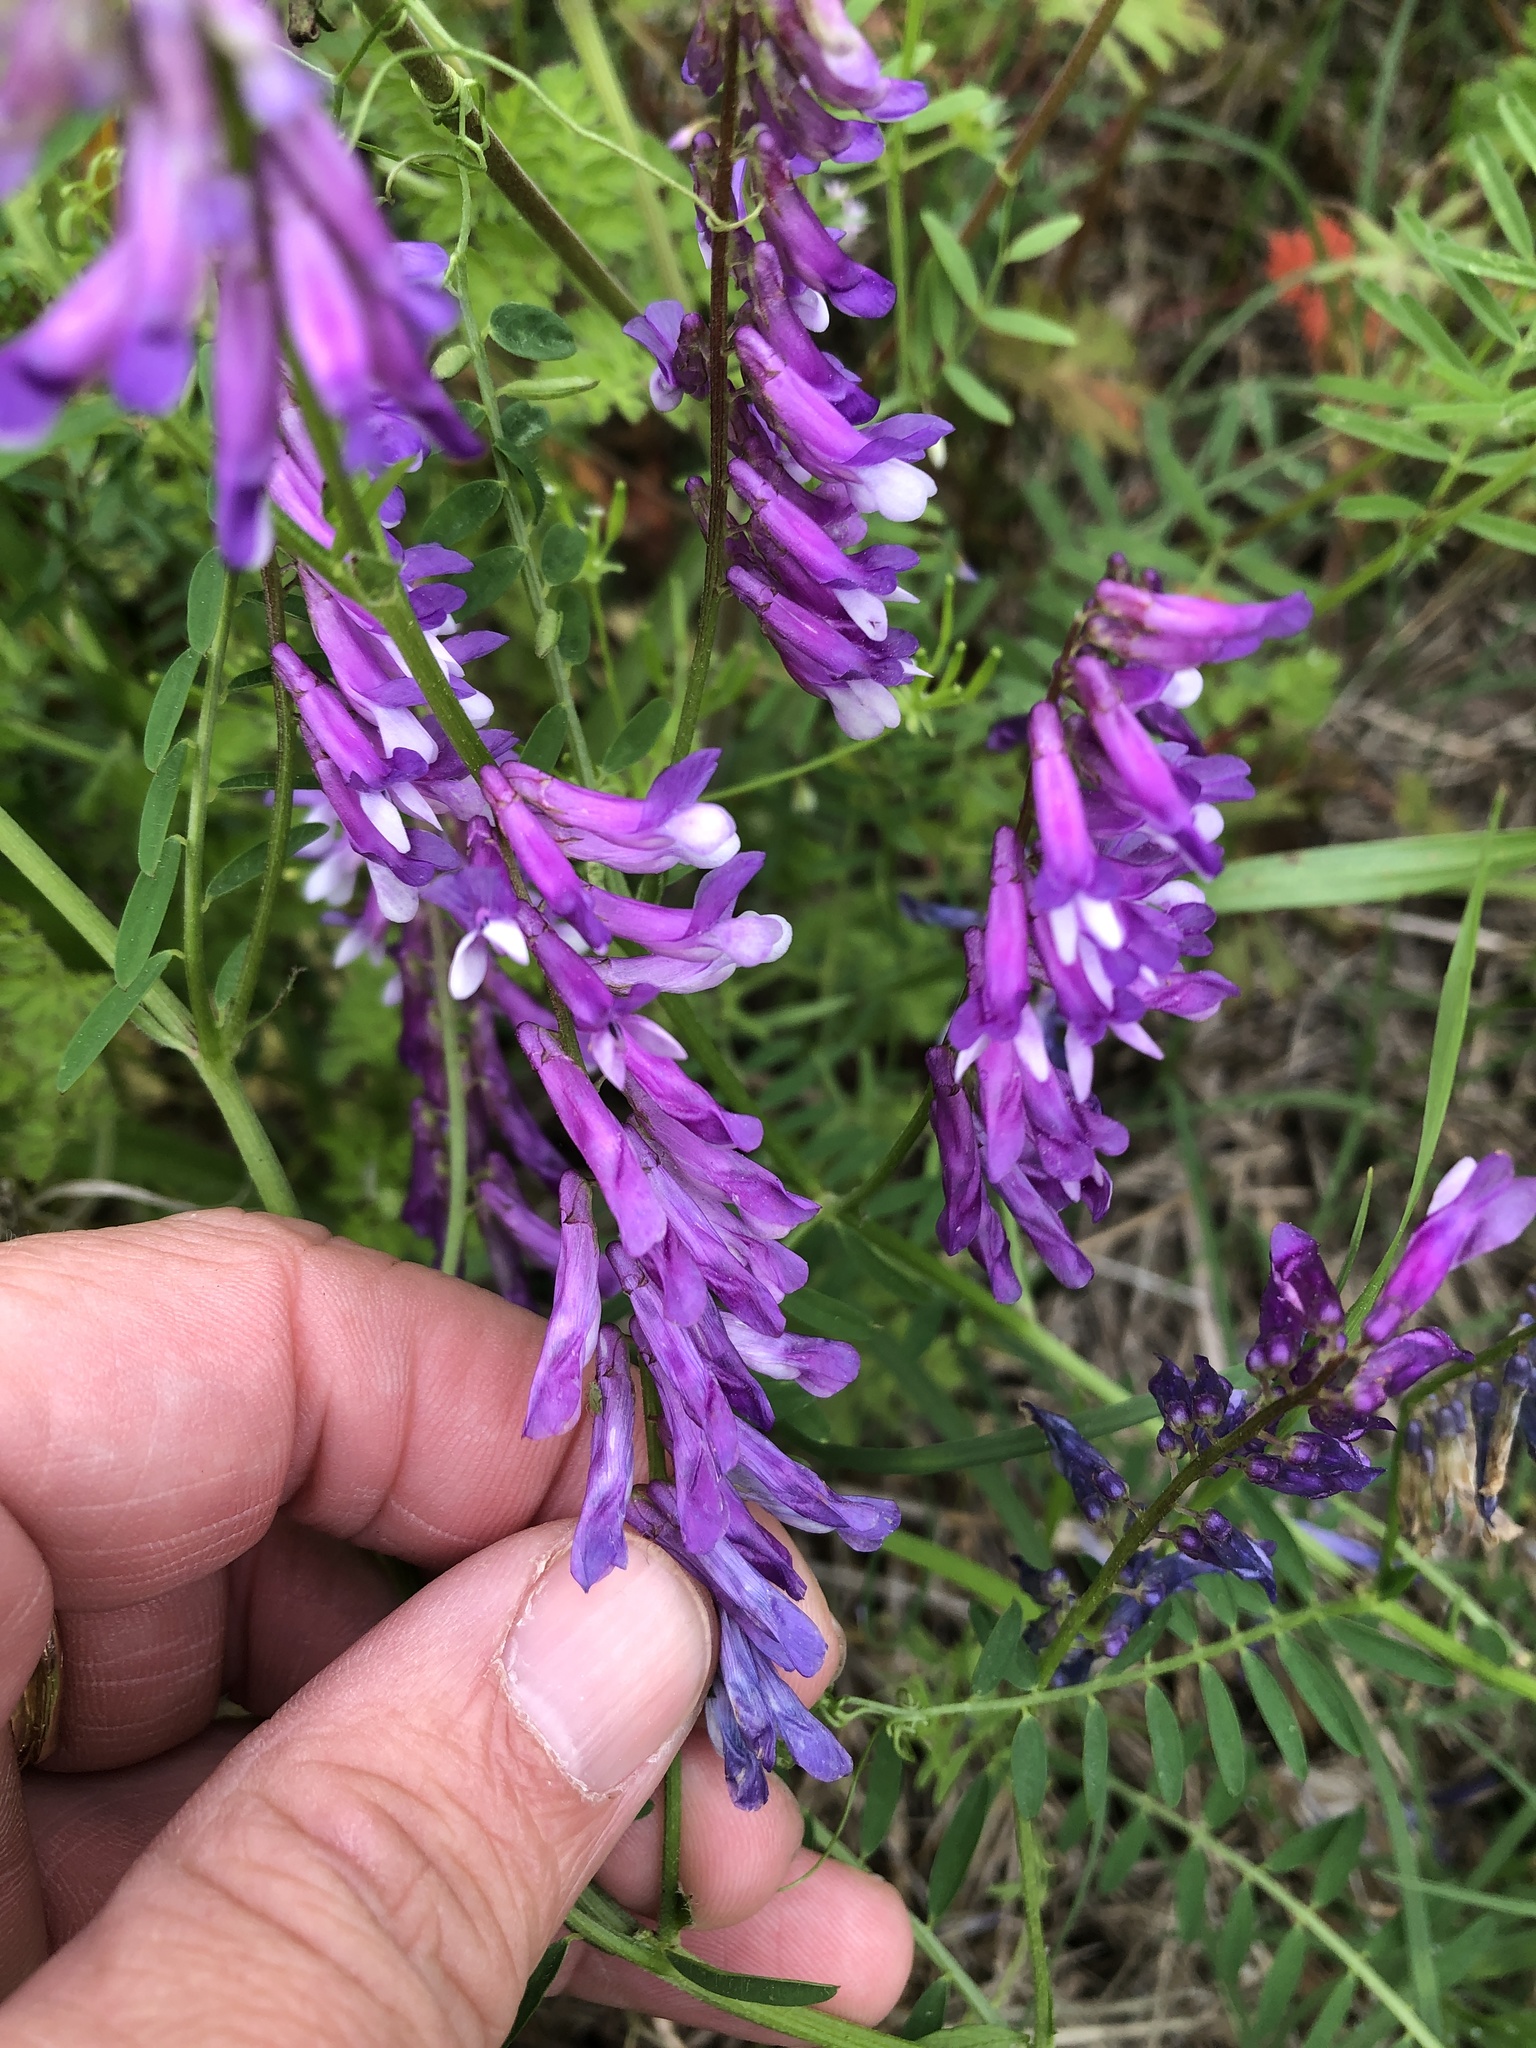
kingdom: Plantae
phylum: Tracheophyta
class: Magnoliopsida
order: Fabales
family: Fabaceae
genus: Vicia
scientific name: Vicia villosa
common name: Fodder vetch
